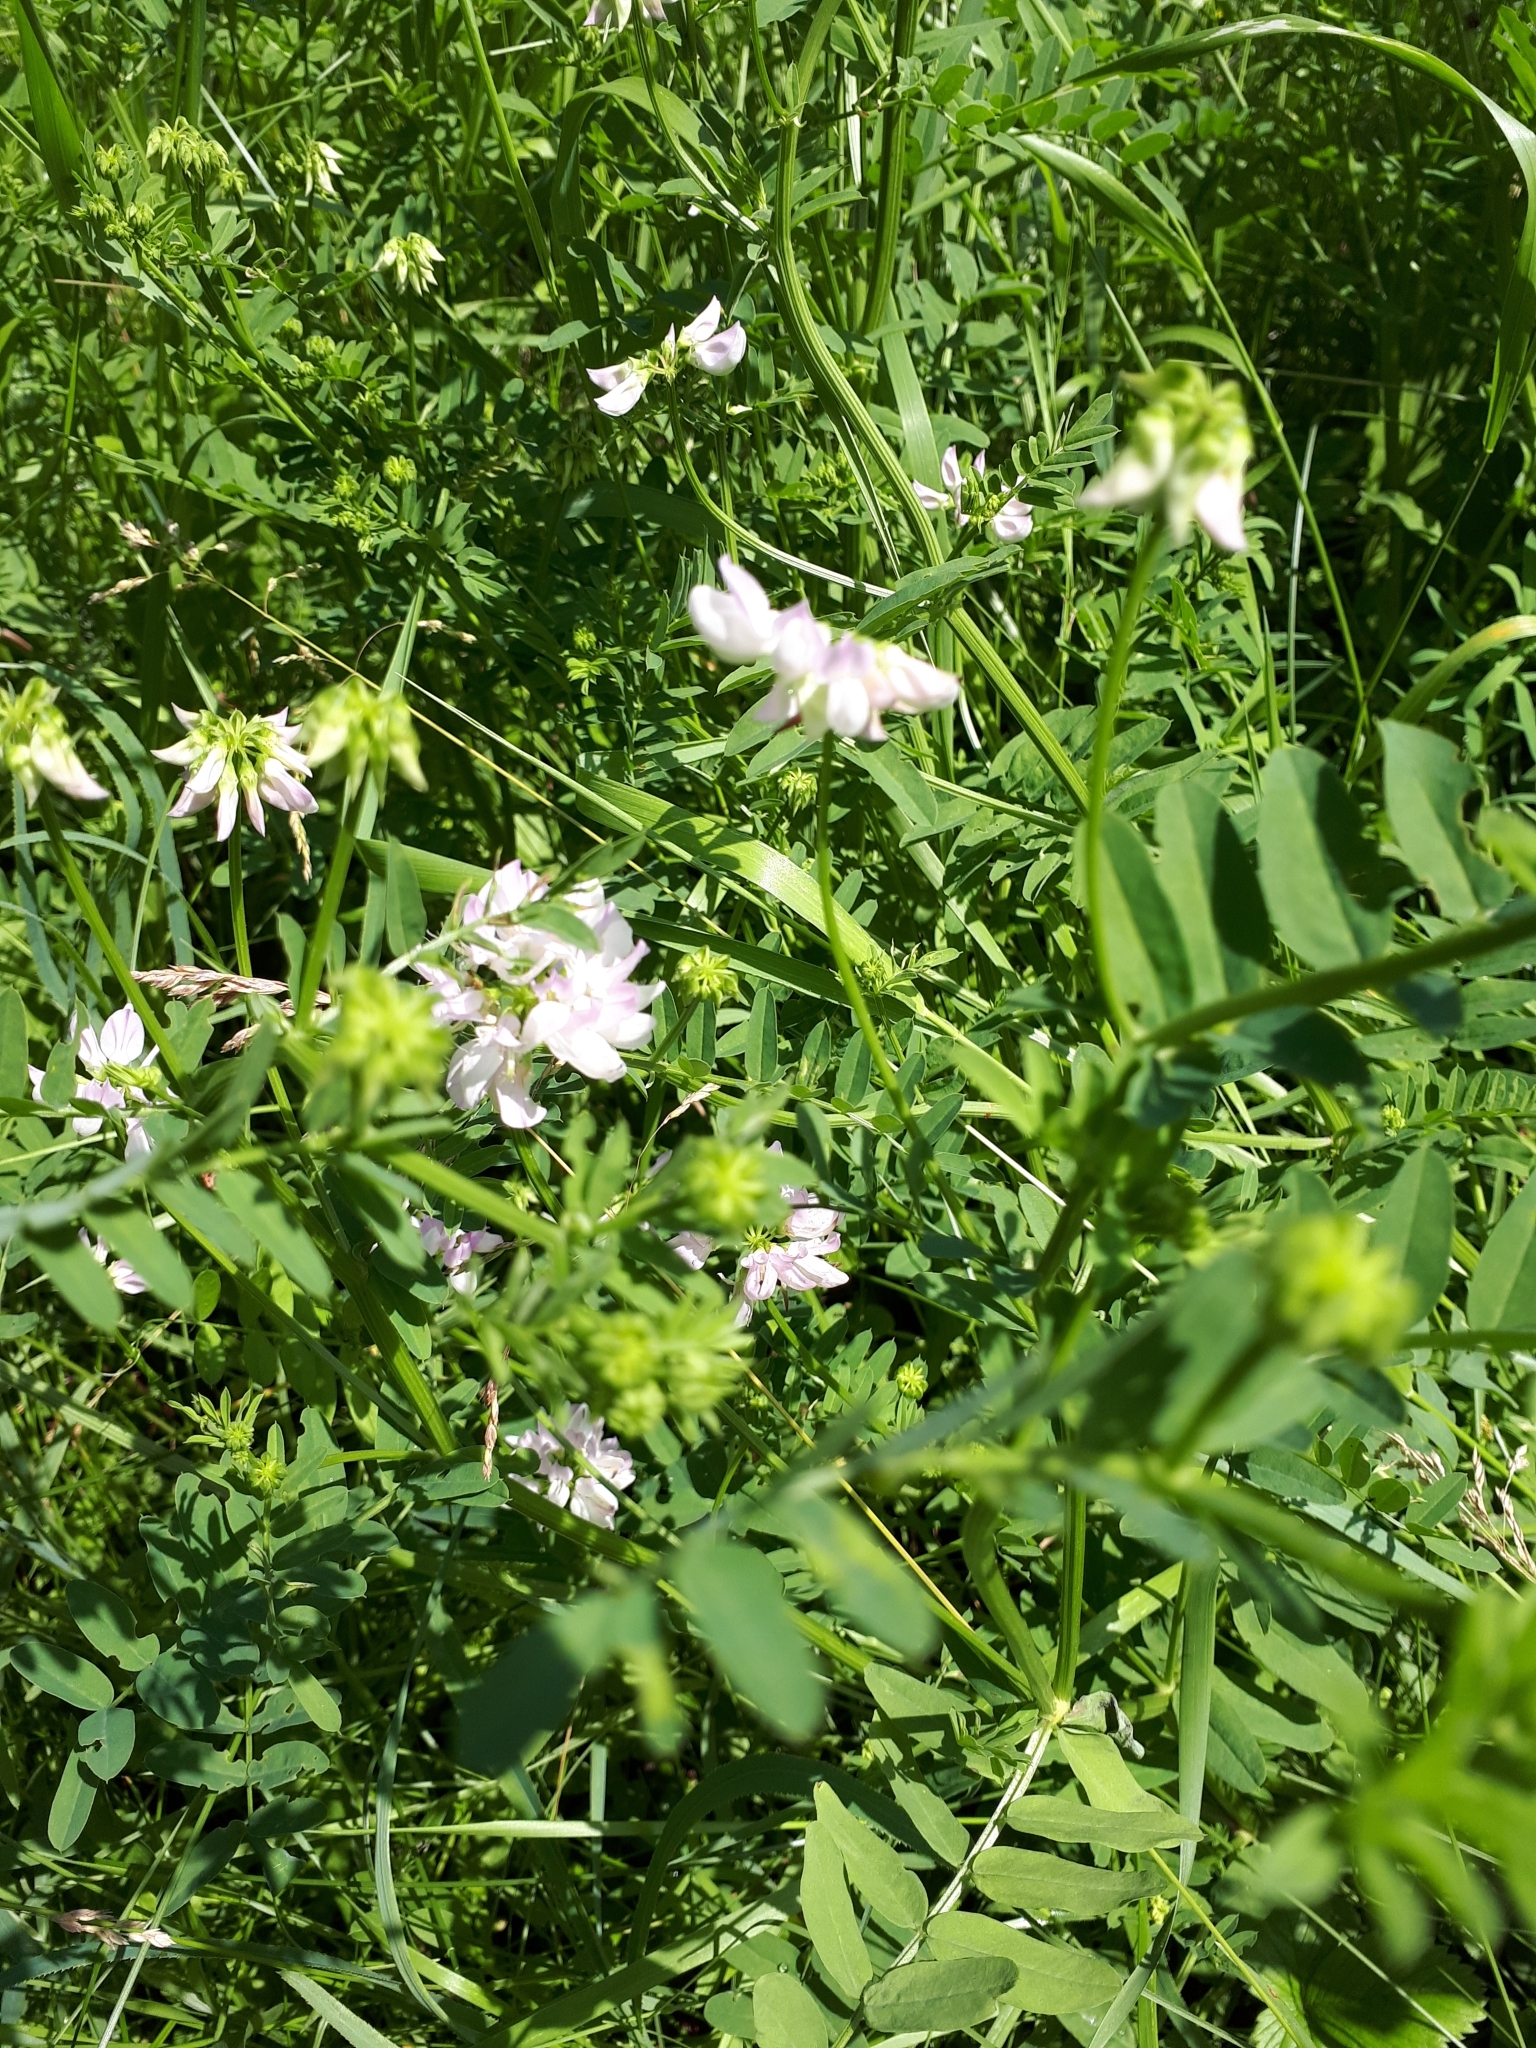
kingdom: Plantae
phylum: Tracheophyta
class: Magnoliopsida
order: Fabales
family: Fabaceae
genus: Coronilla
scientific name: Coronilla varia
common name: Crownvetch
